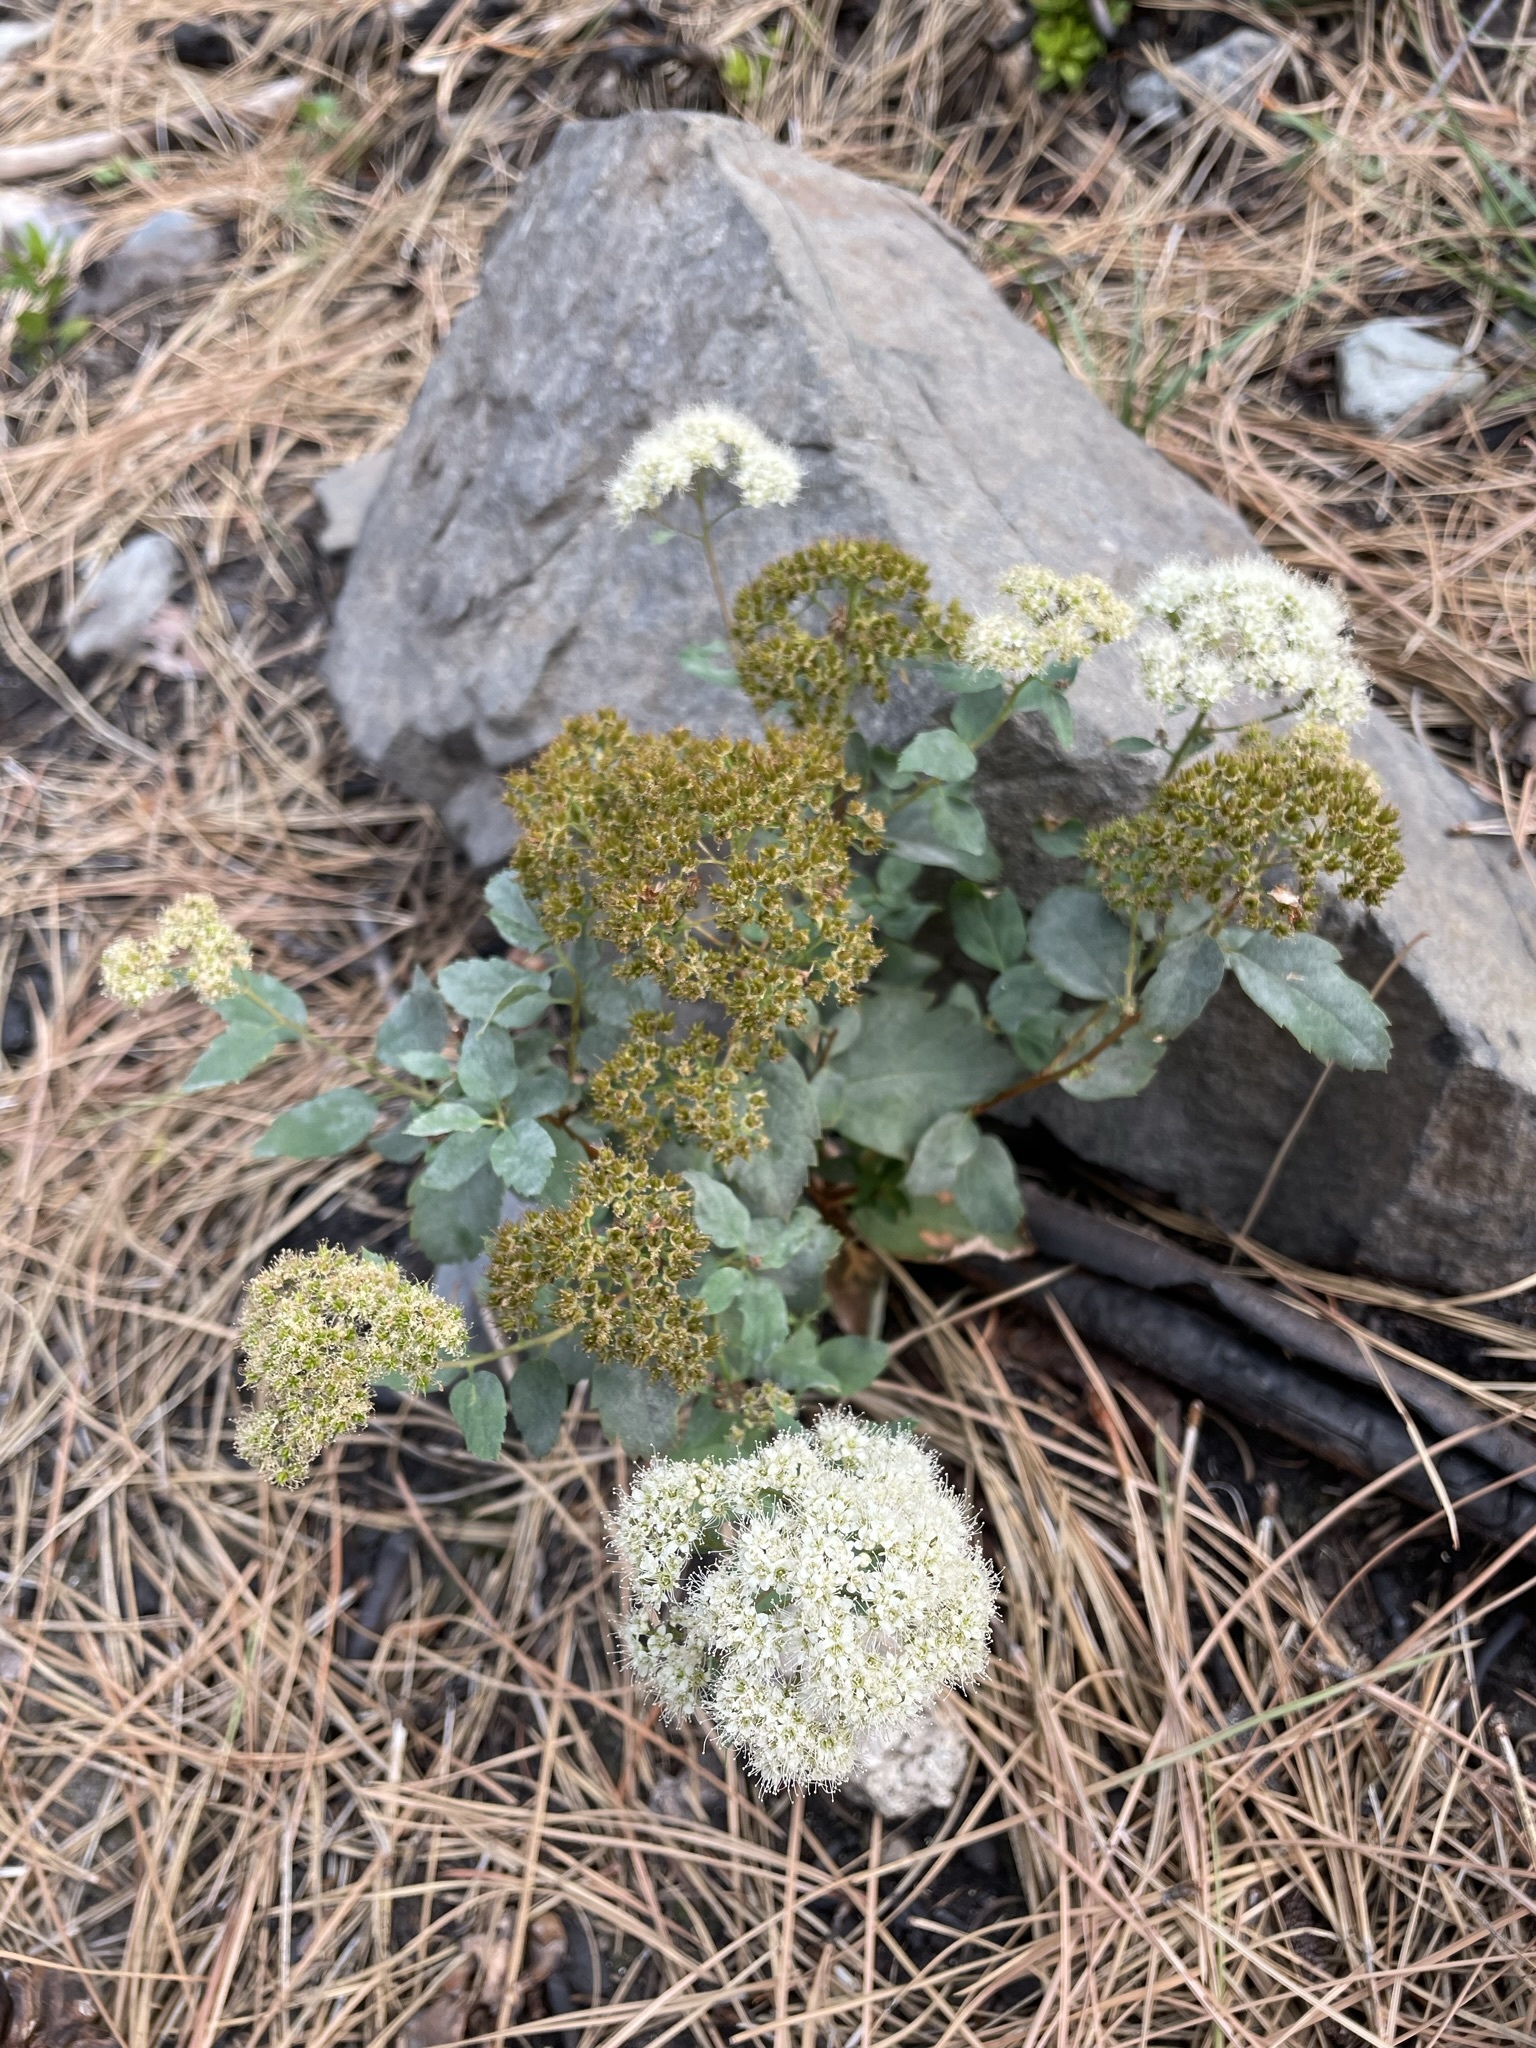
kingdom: Plantae
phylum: Tracheophyta
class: Magnoliopsida
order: Rosales
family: Rosaceae
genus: Spiraea
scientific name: Spiraea lucida
